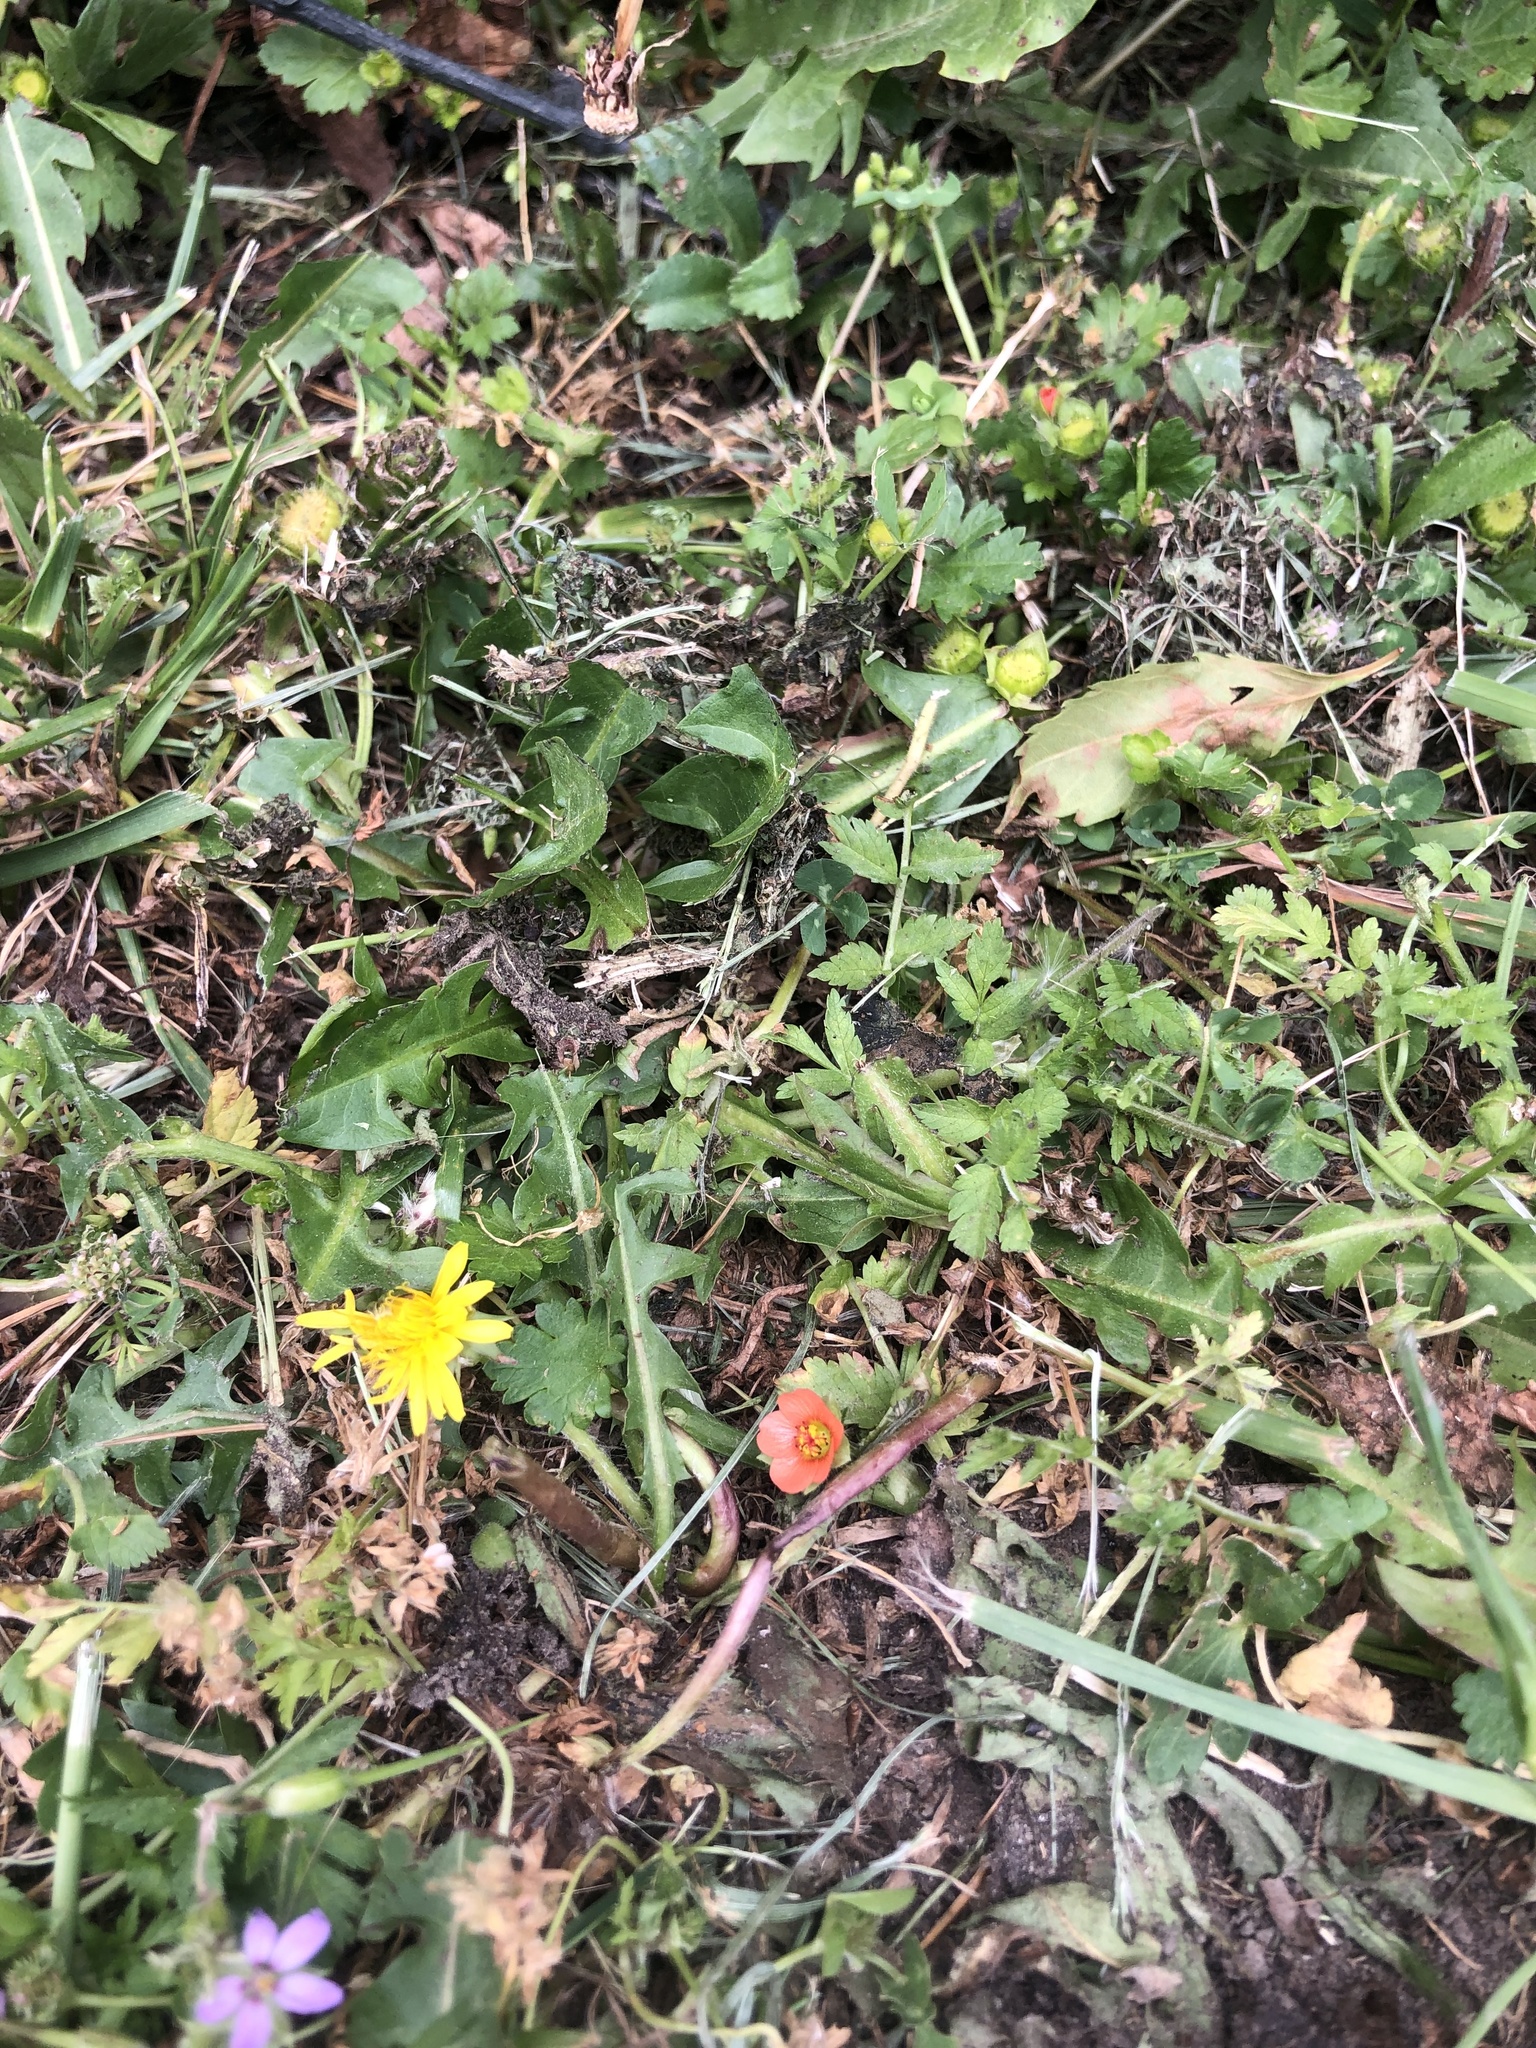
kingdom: Plantae
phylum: Tracheophyta
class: Magnoliopsida
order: Malvales
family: Malvaceae
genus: Modiola
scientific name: Modiola caroliniana
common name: Carolina bristlemallow
